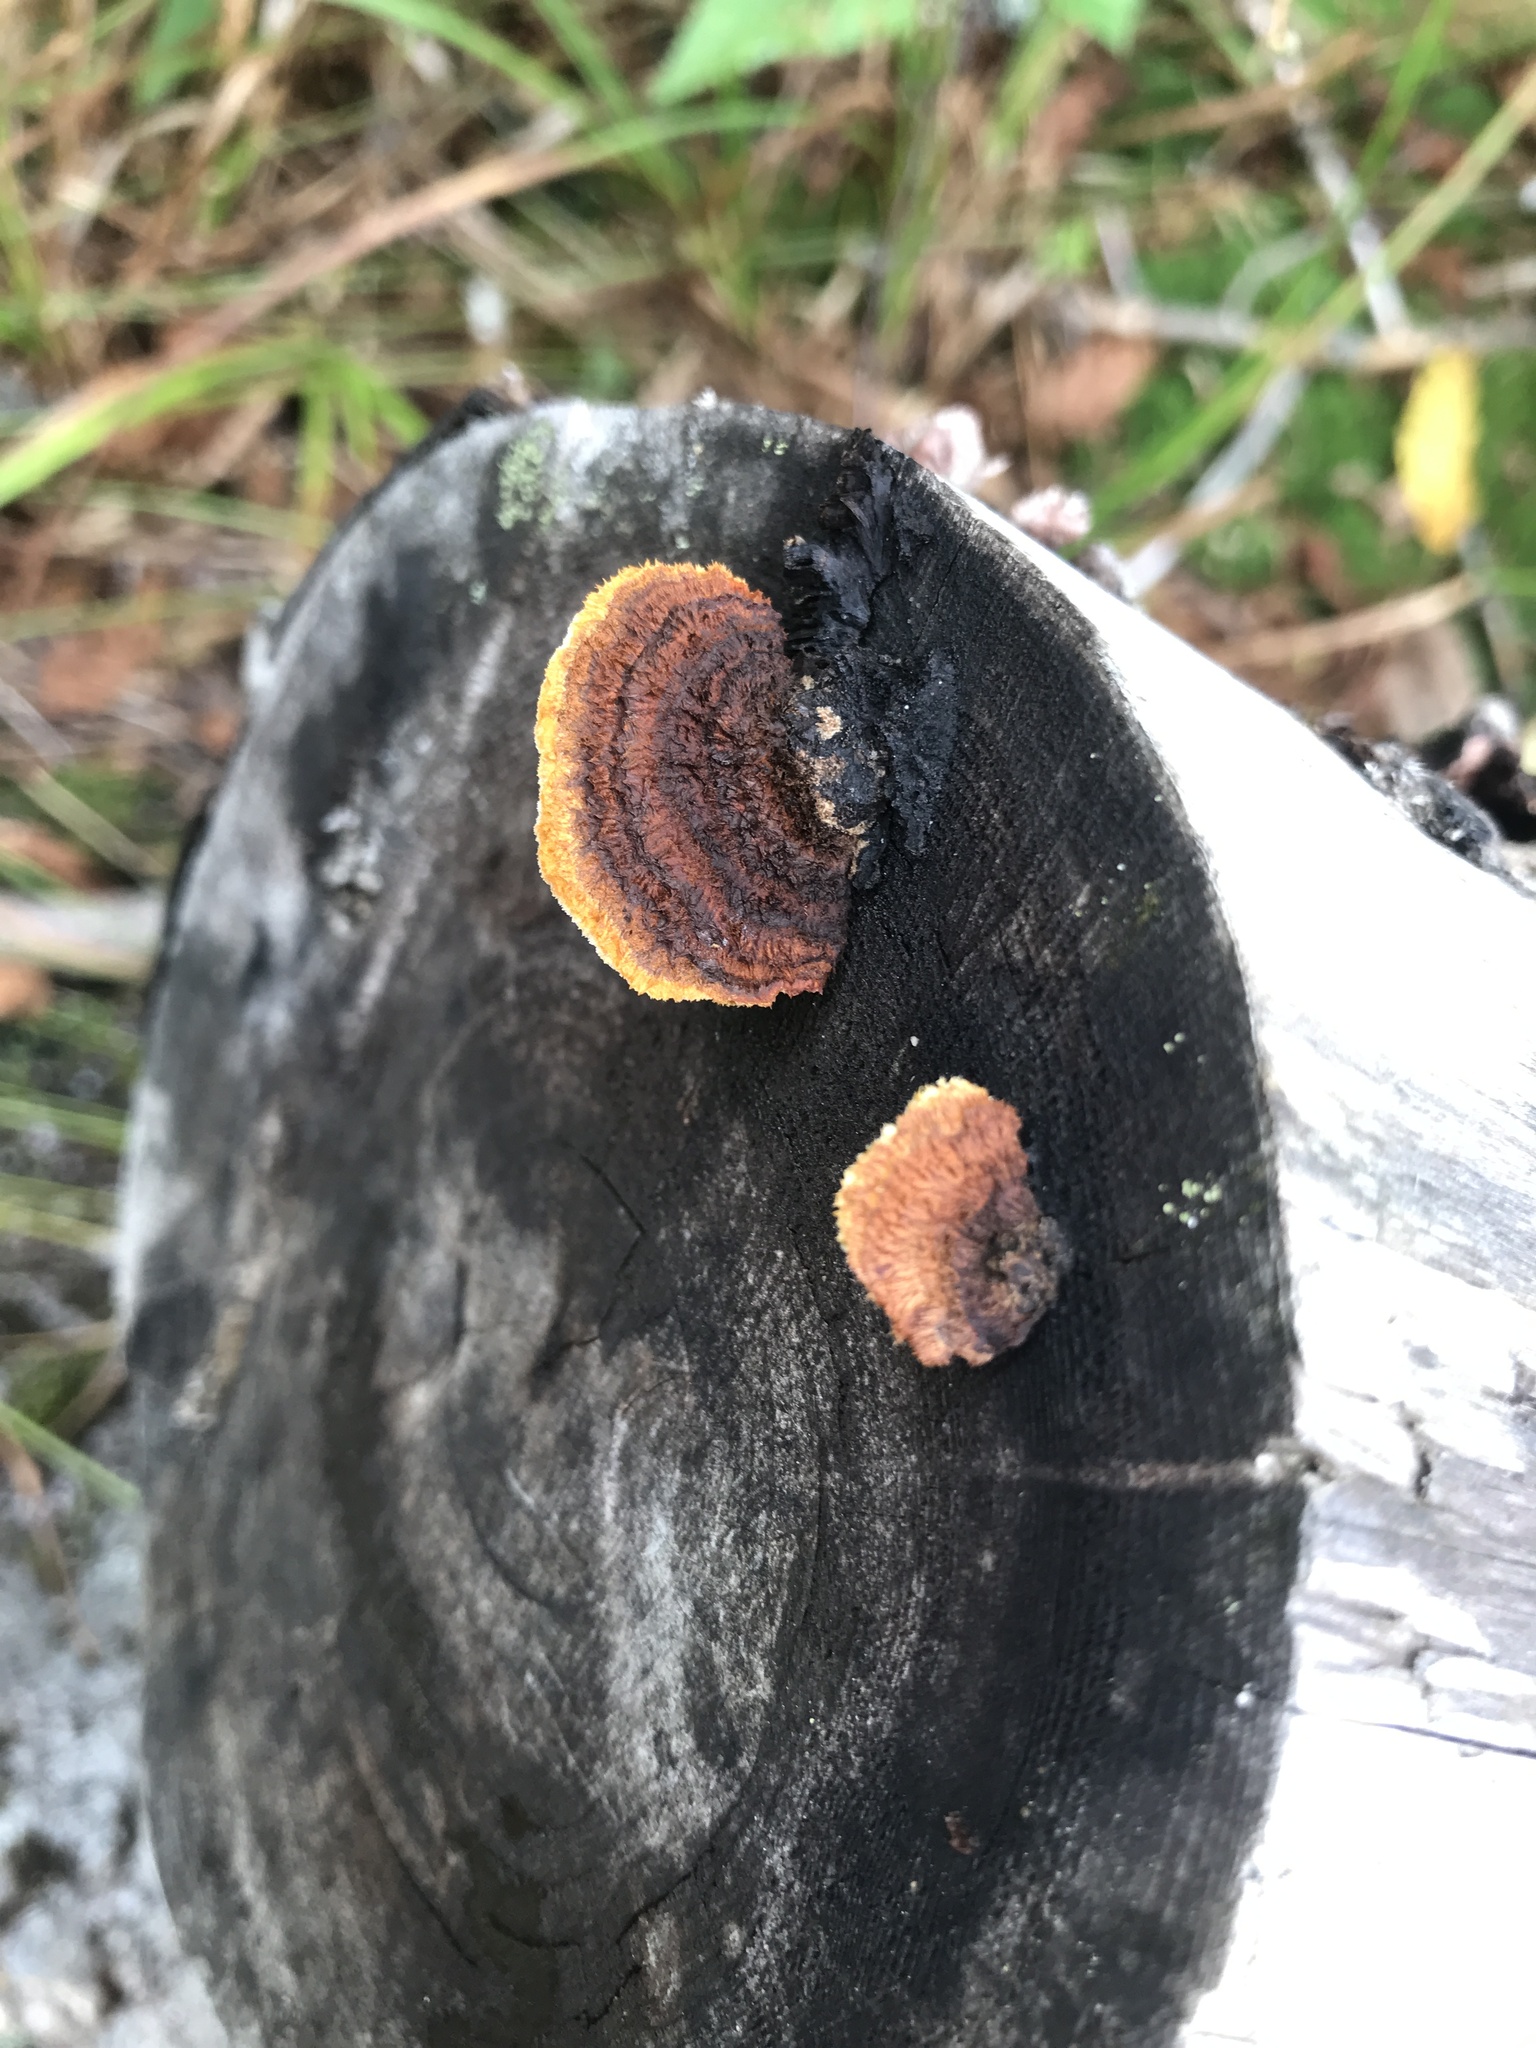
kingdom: Fungi
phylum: Basidiomycota
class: Agaricomycetes
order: Gloeophyllales
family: Gloeophyllaceae
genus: Gloeophyllum
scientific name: Gloeophyllum sepiarium
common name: Conifer mazegill
